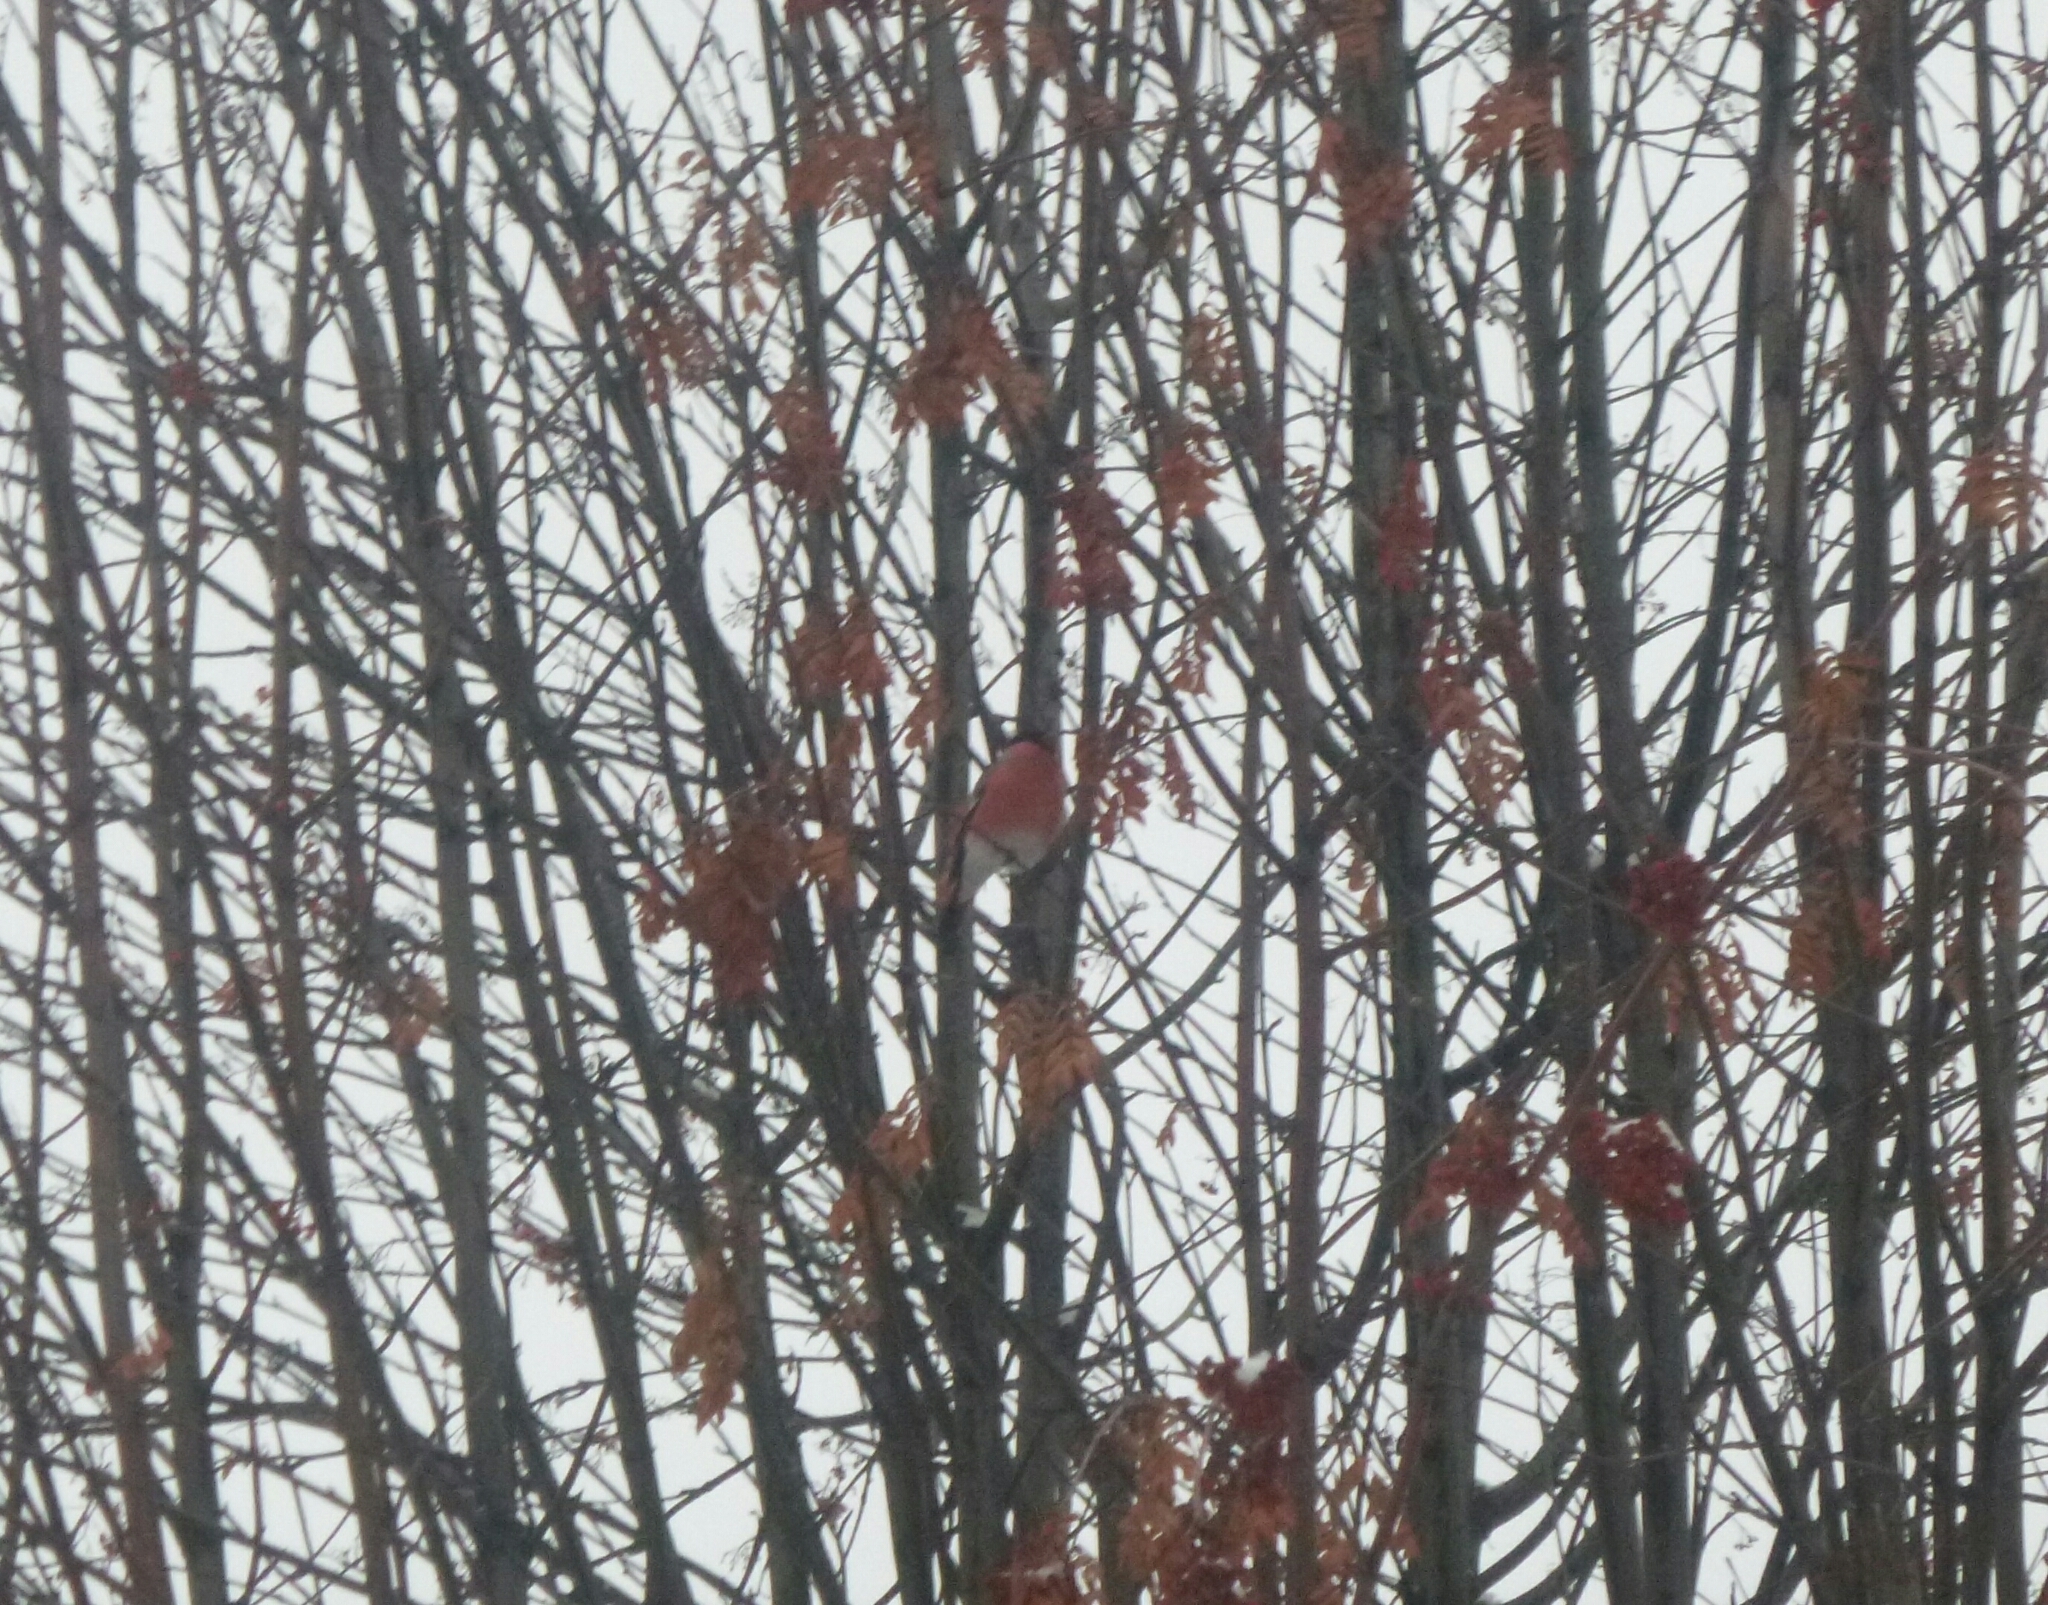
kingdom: Animalia
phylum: Chordata
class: Aves
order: Passeriformes
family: Fringillidae
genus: Pyrrhula
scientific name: Pyrrhula pyrrhula
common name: Eurasian bullfinch
